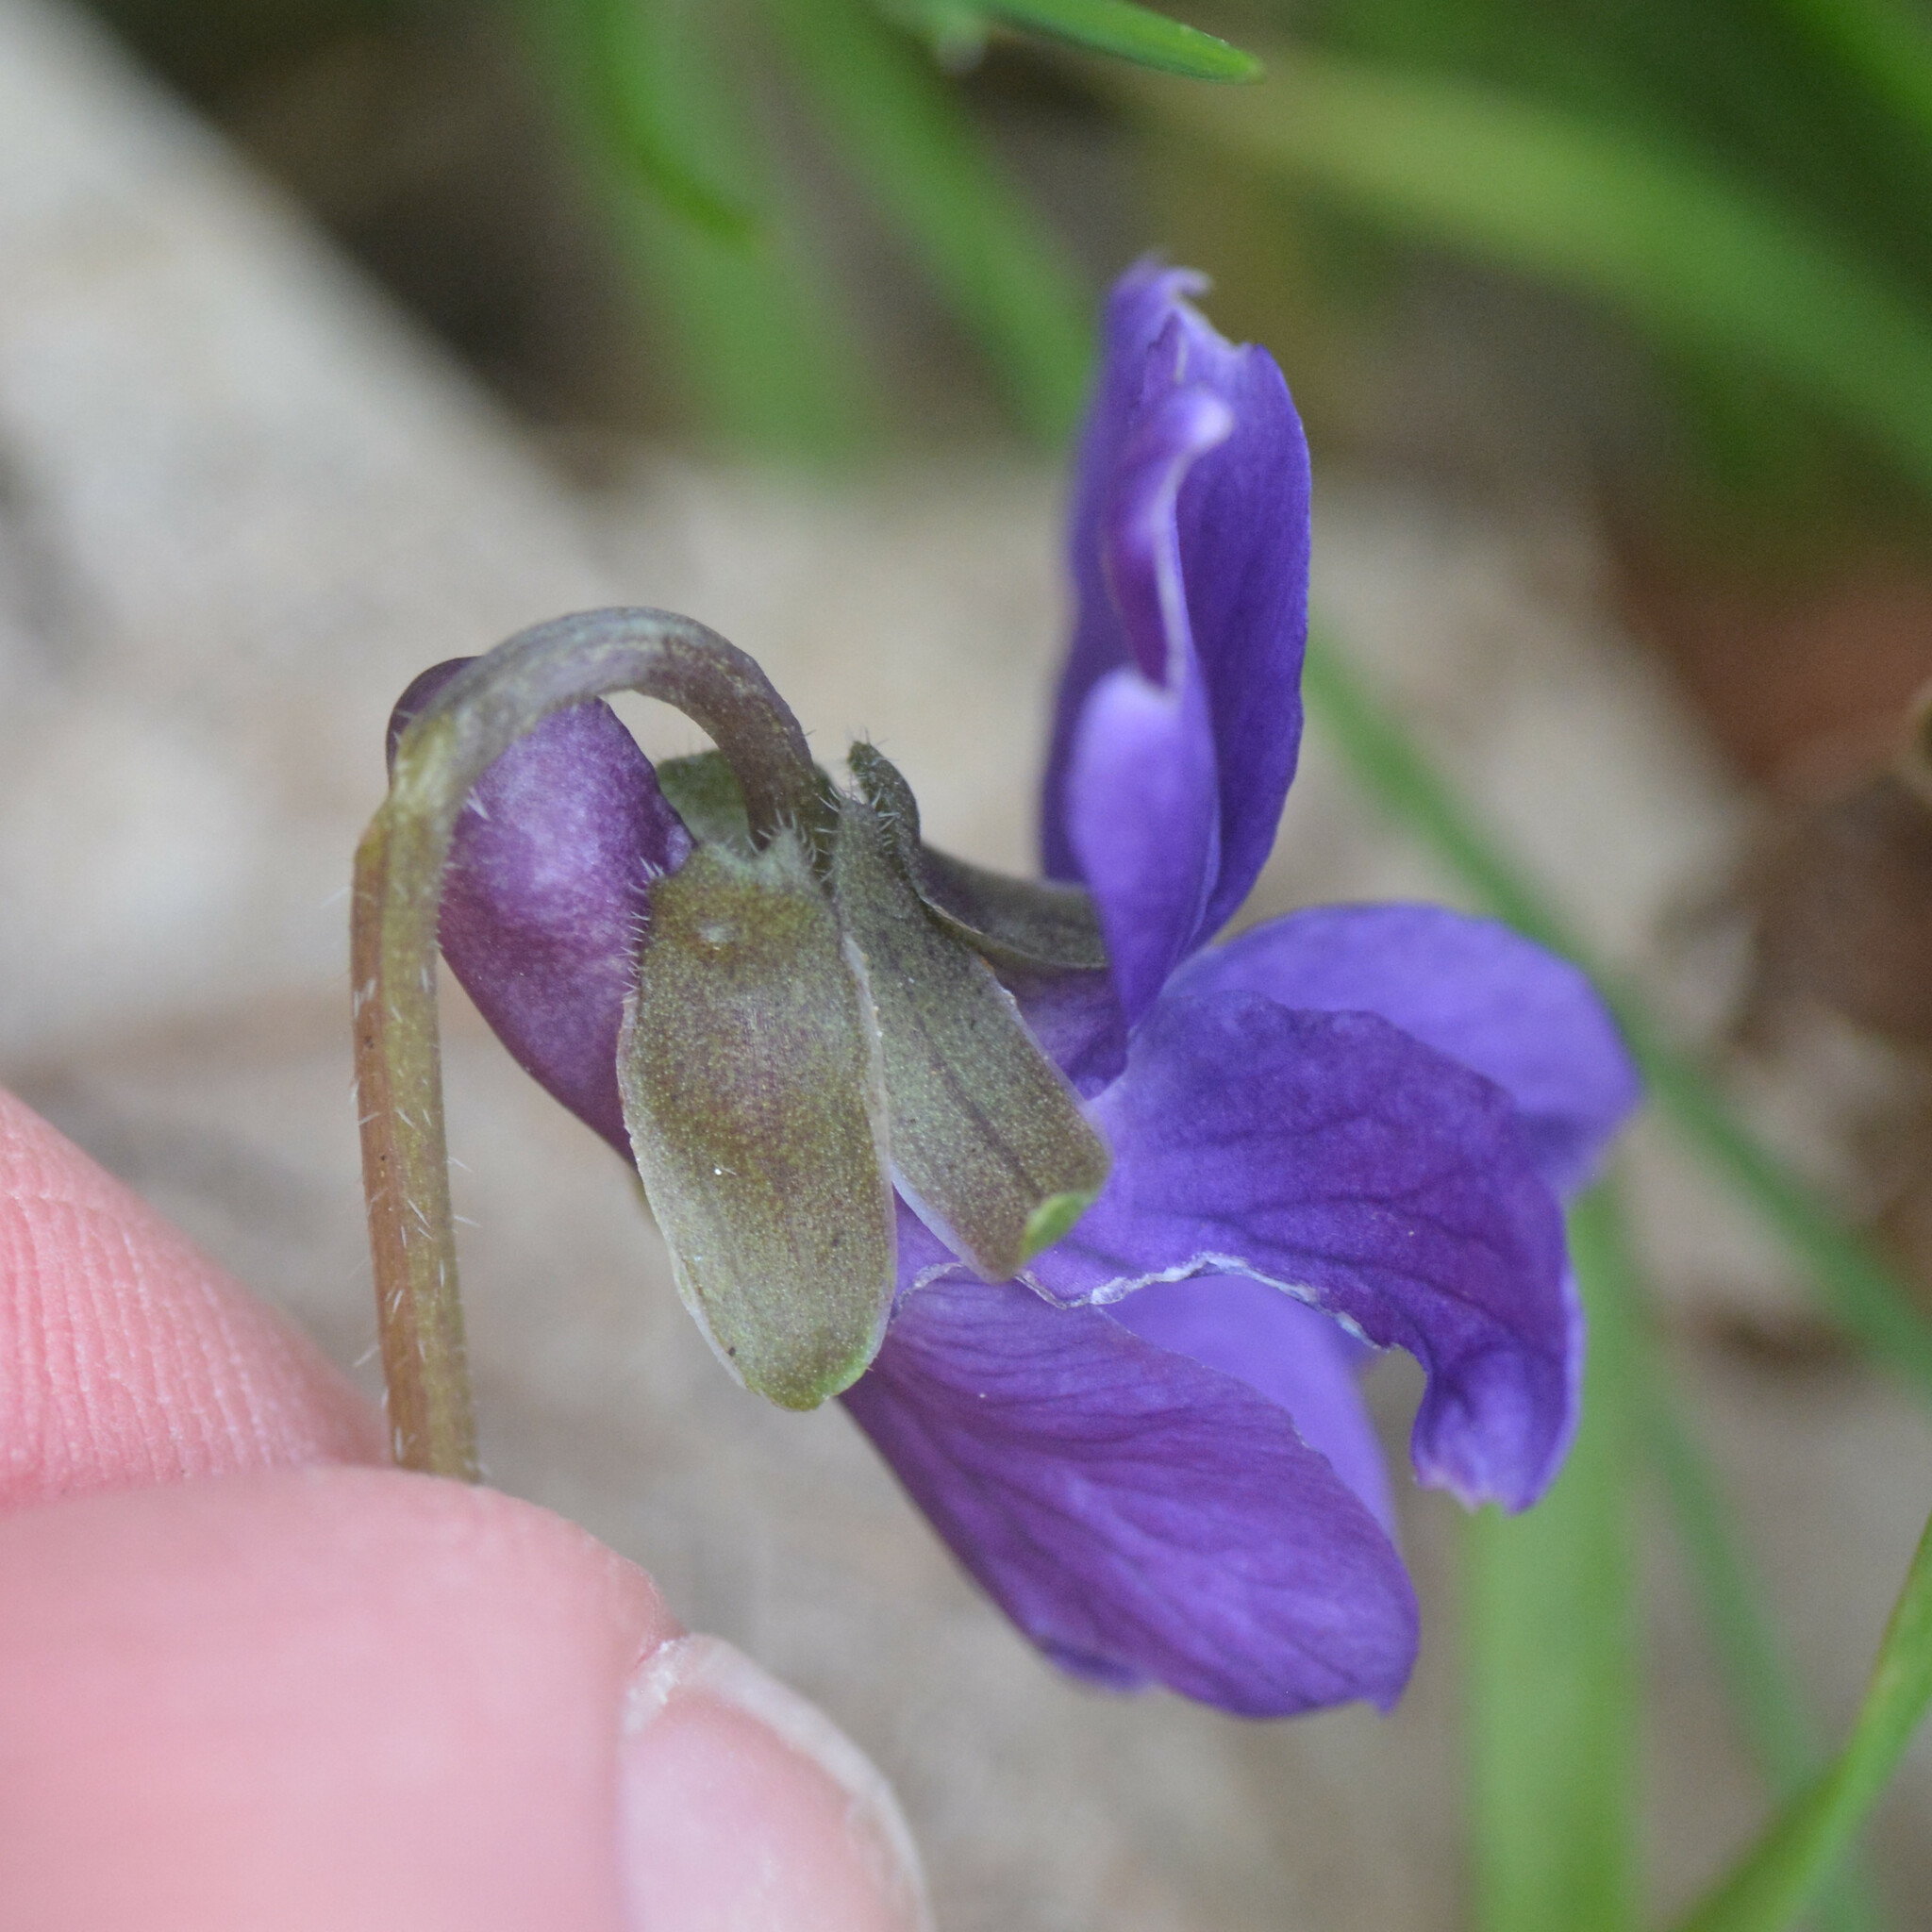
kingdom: Plantae
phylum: Tracheophyta
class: Magnoliopsida
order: Malpighiales
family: Violaceae
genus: Viola
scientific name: Viola odorata
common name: Sweet violet
